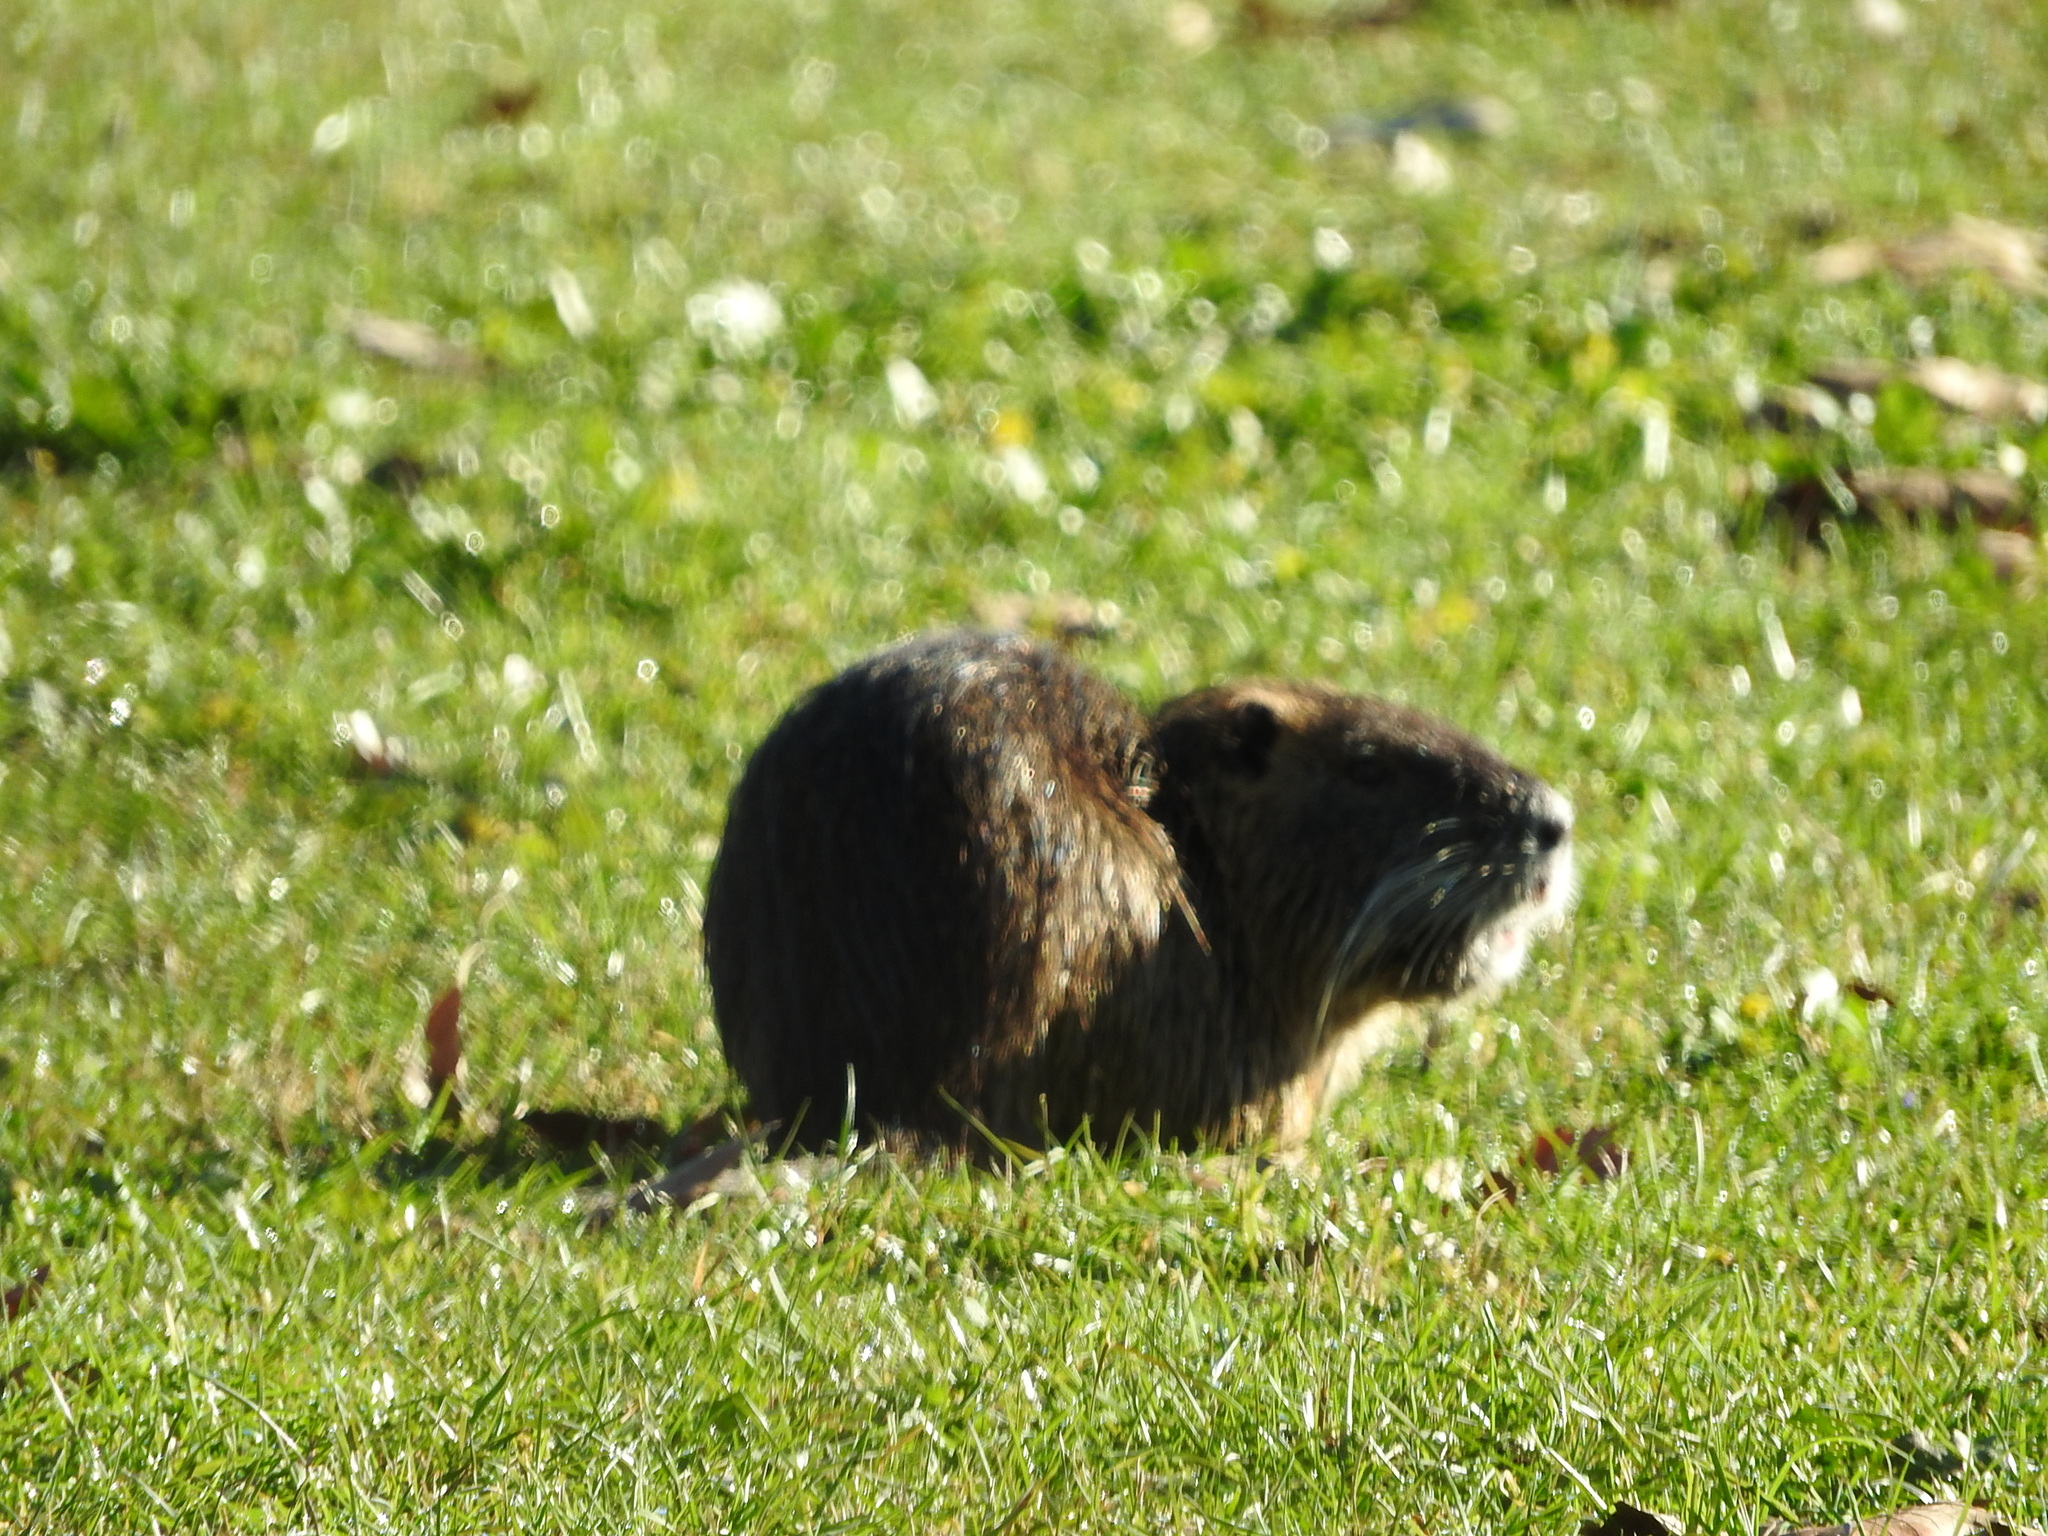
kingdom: Animalia
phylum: Chordata
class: Mammalia
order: Rodentia
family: Myocastoridae
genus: Myocastor
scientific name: Myocastor coypus
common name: Coypu
